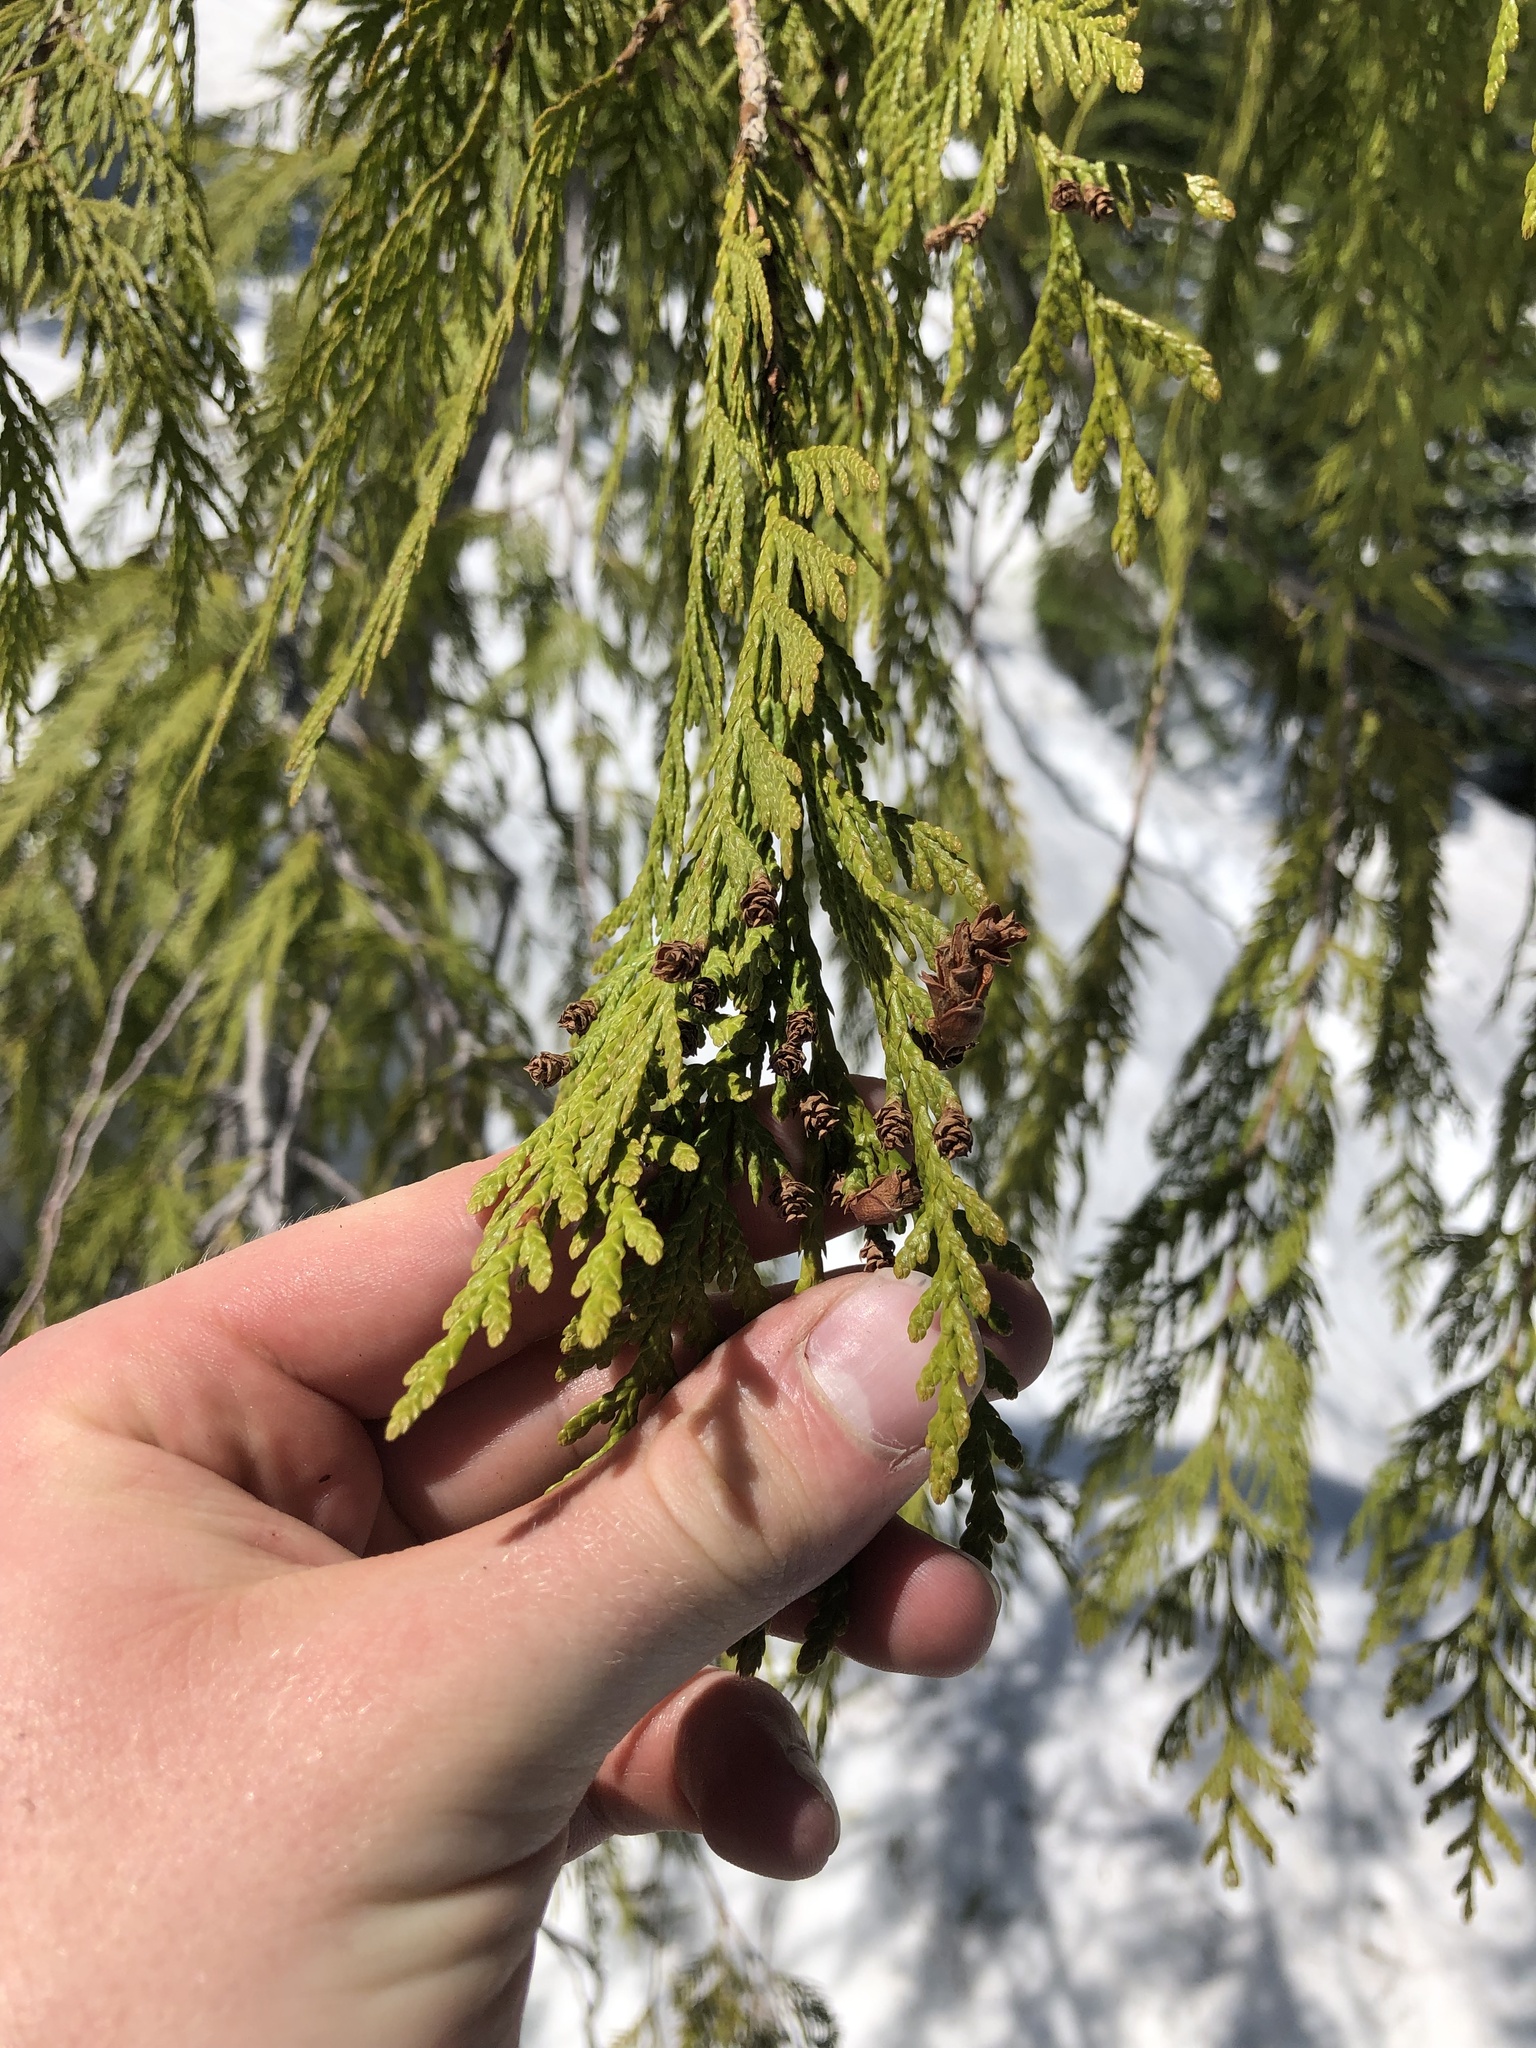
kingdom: Plantae
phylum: Tracheophyta
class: Pinopsida
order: Pinales
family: Cupressaceae
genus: Thuja
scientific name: Thuja plicata
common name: Western red-cedar
